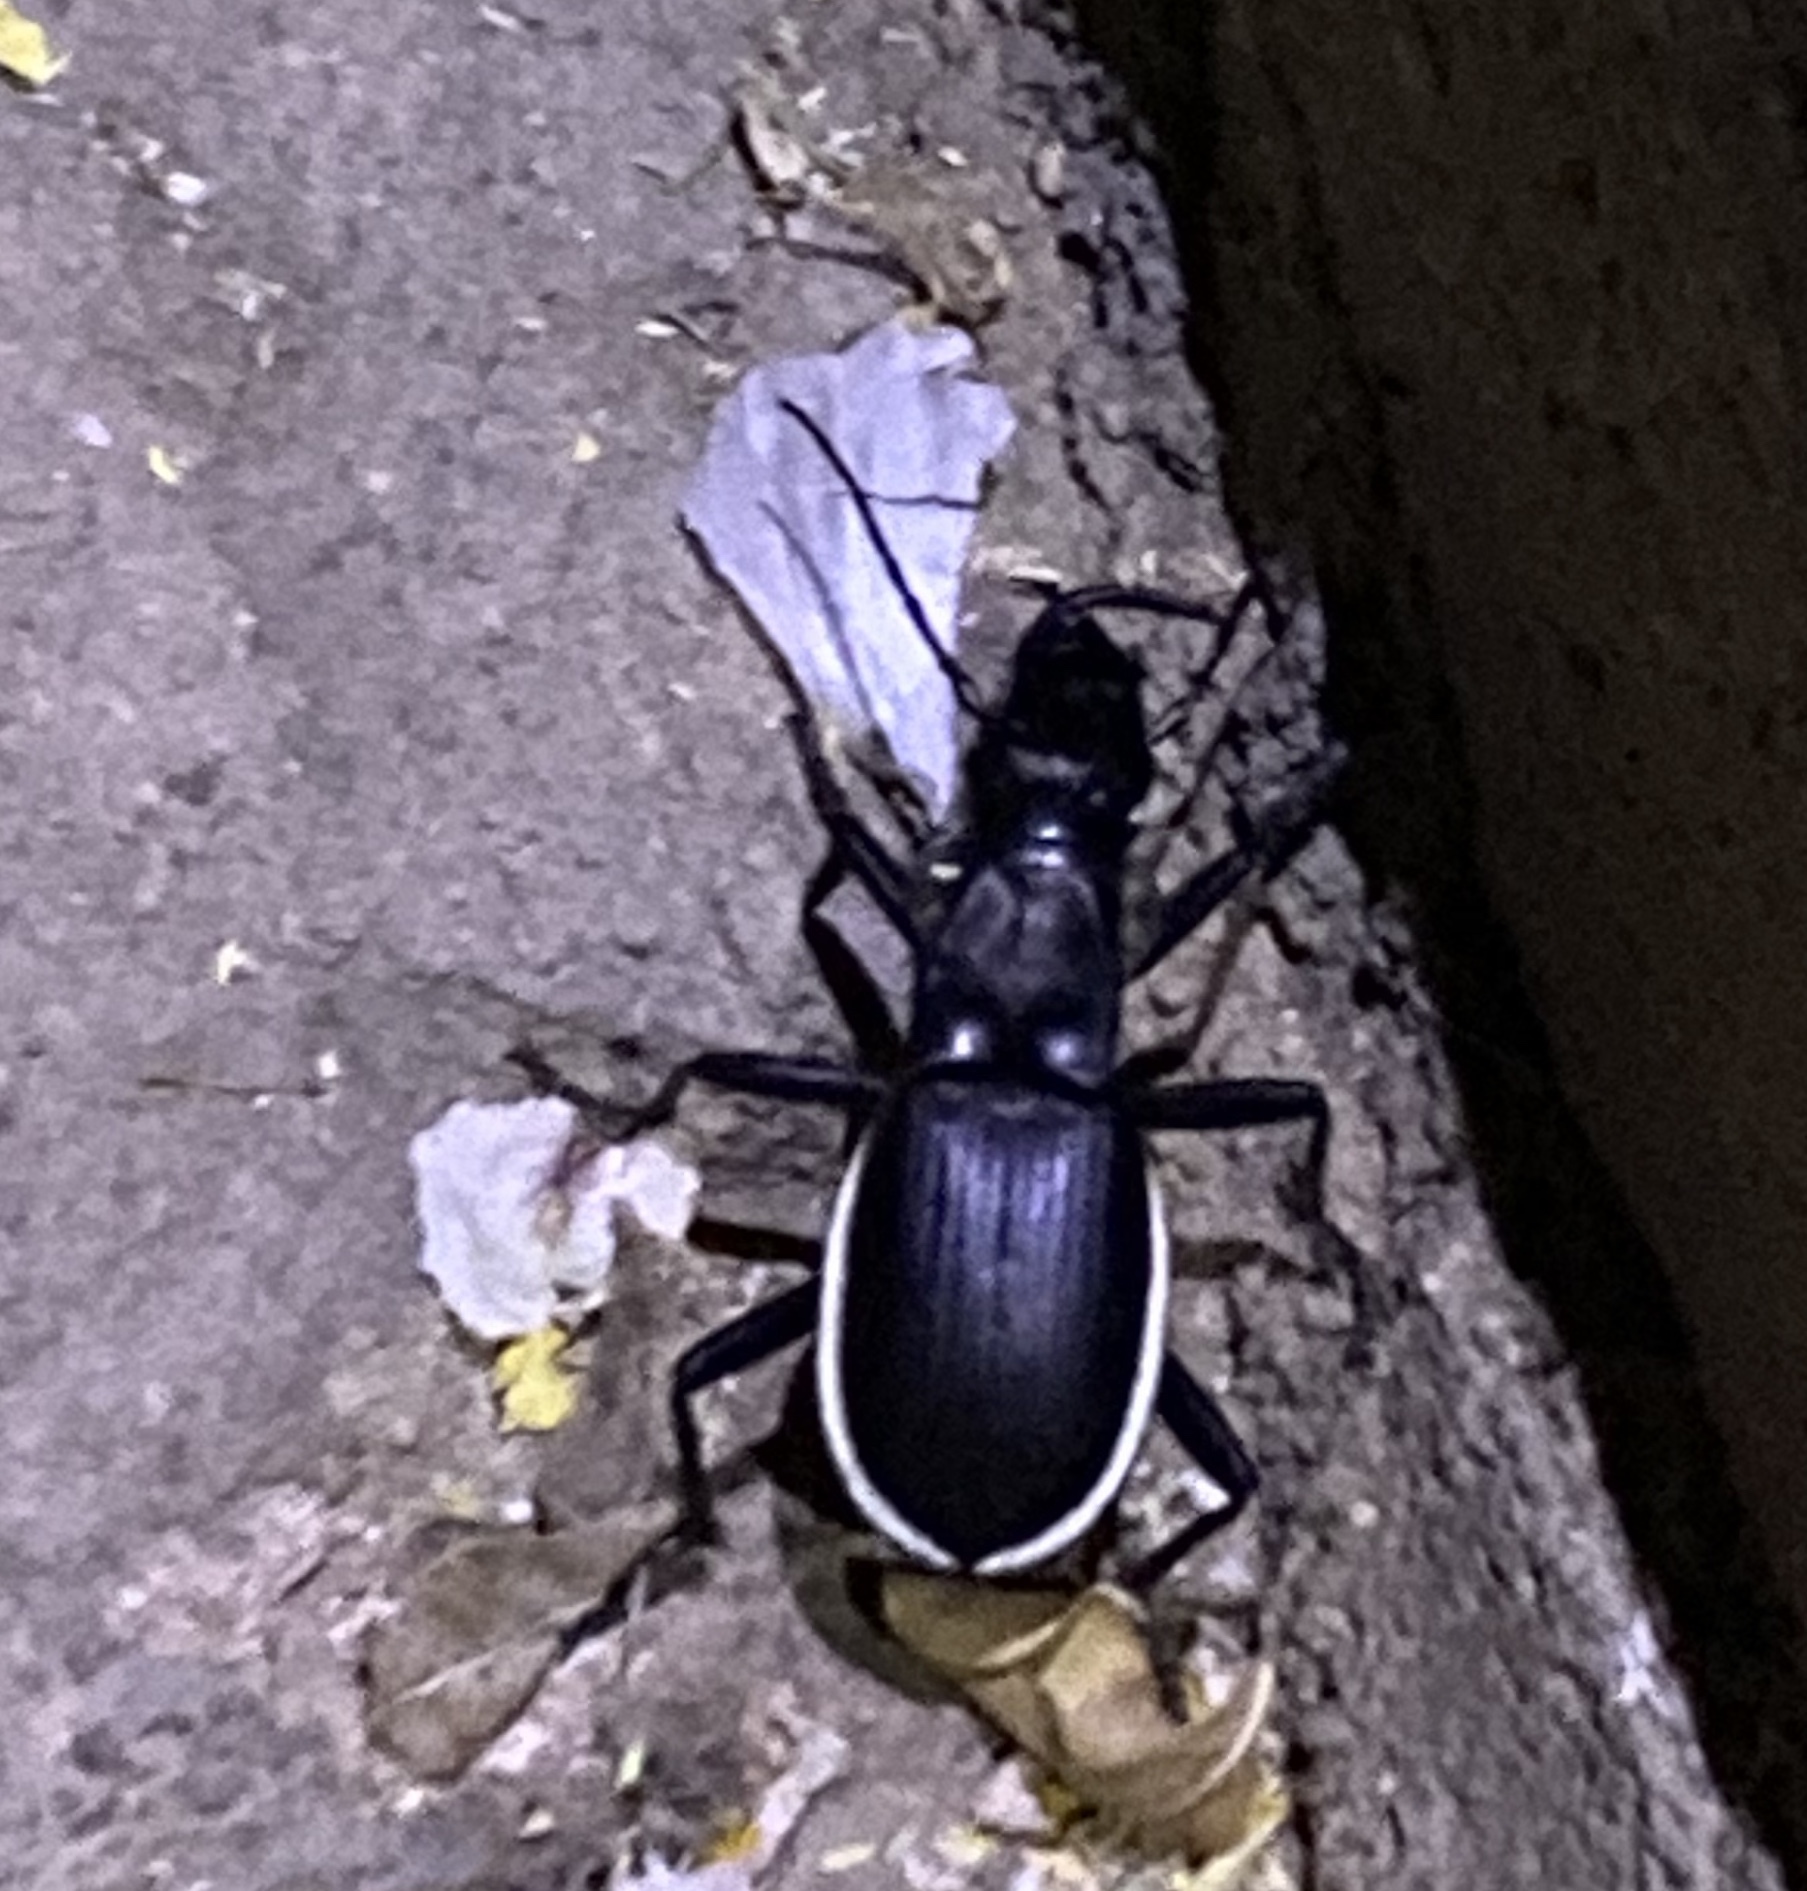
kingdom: Animalia
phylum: Arthropoda
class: Insecta
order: Coleoptera
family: Carabidae
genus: Anthia
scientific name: Anthia cinctipennis
